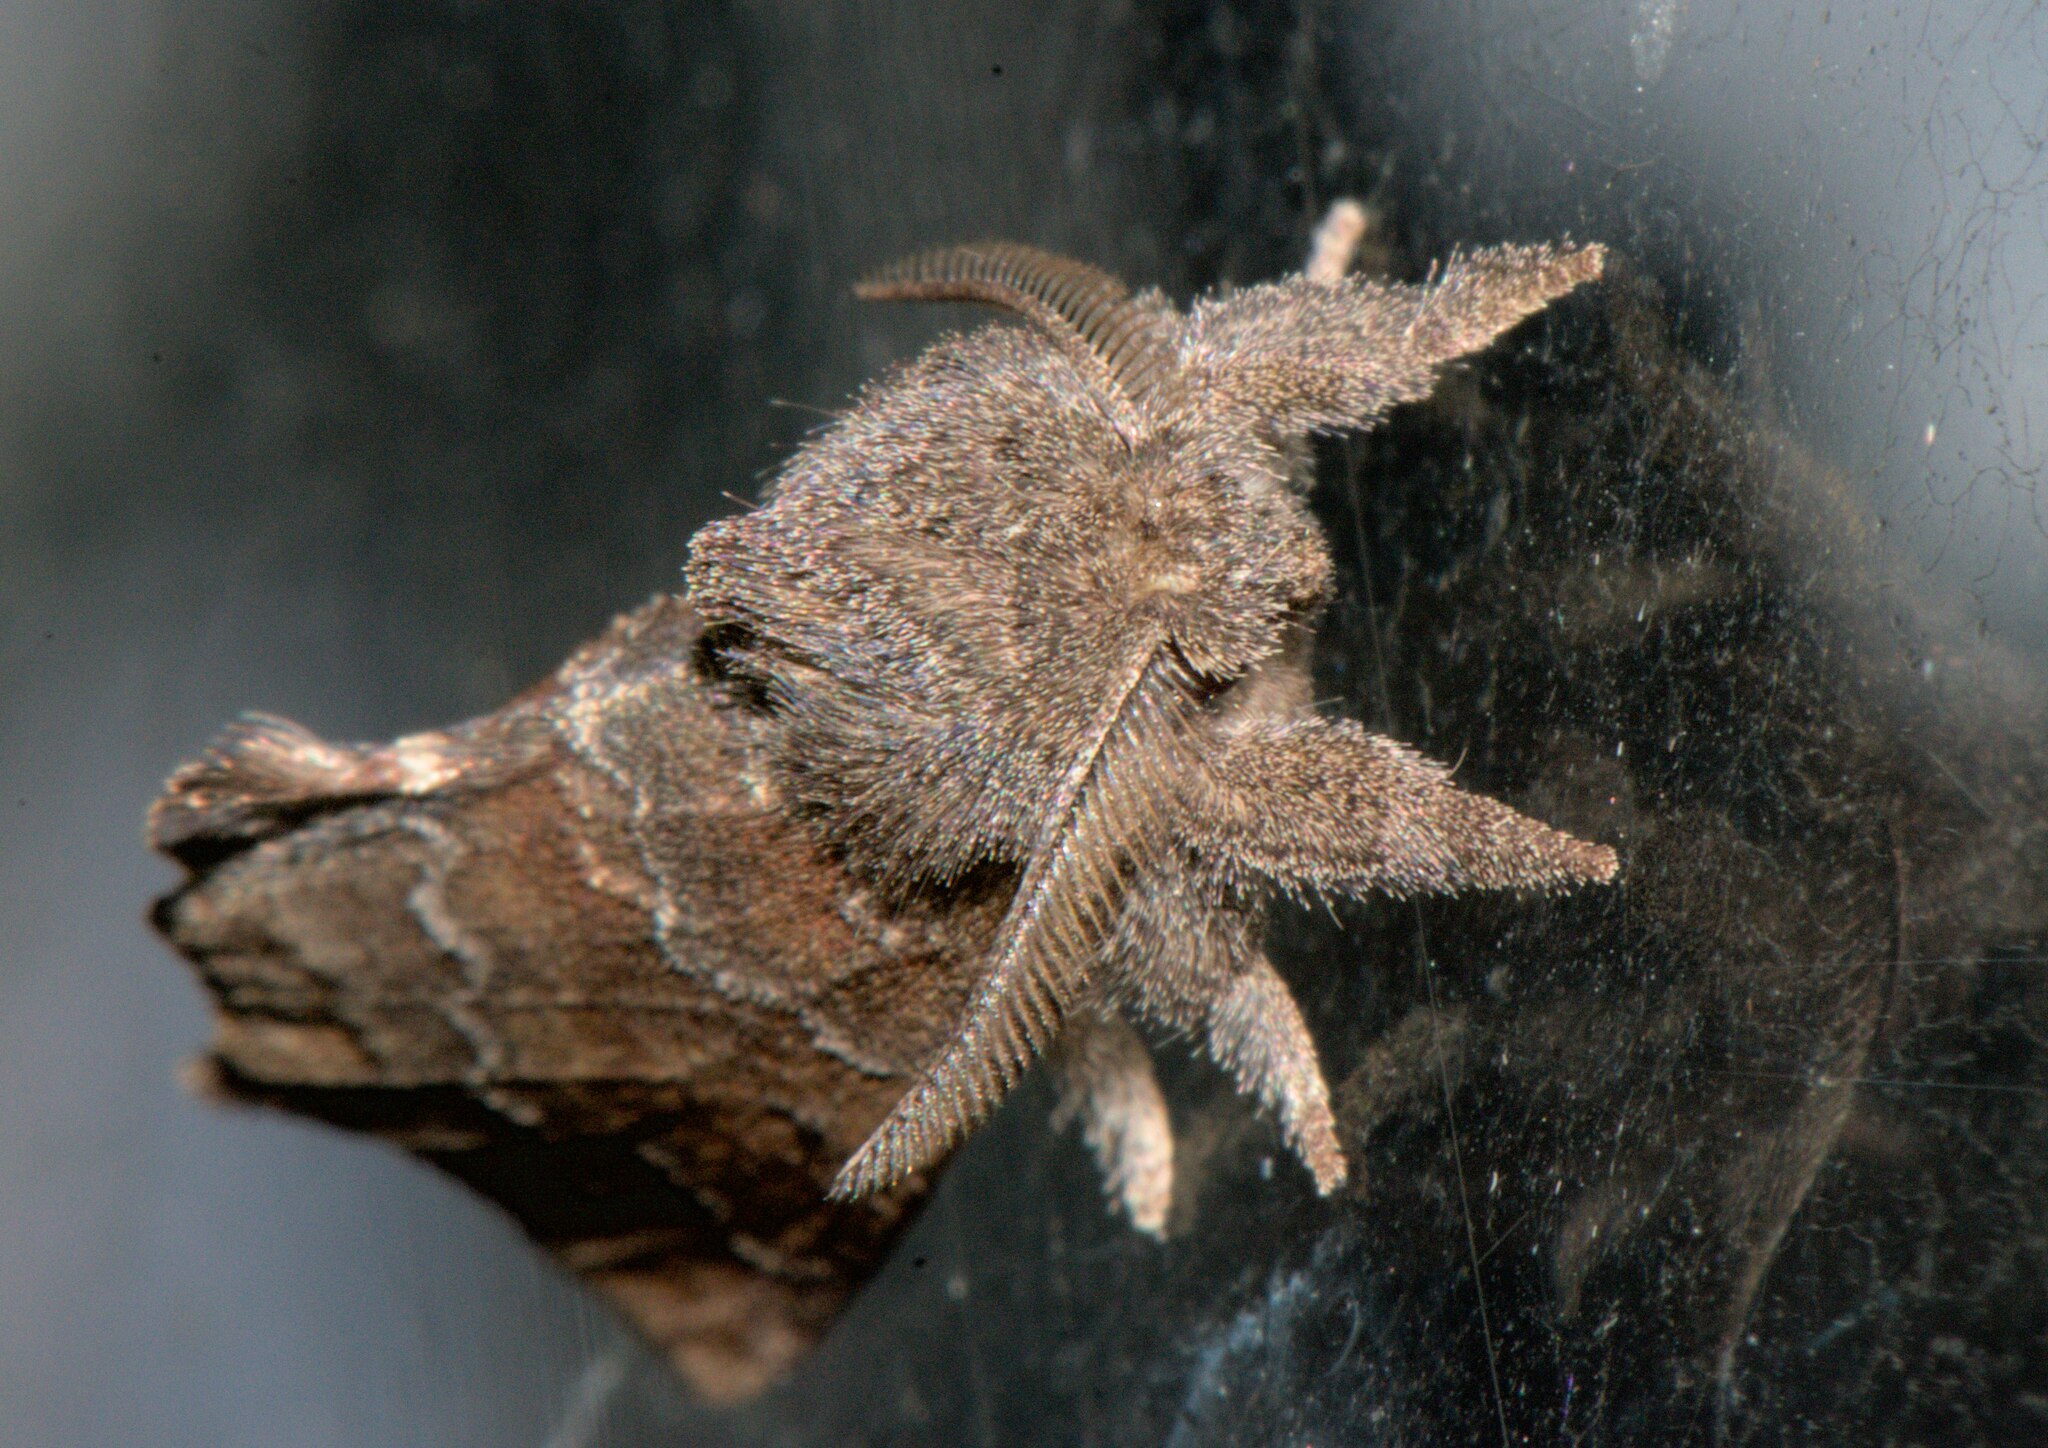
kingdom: Animalia
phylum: Arthropoda
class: Insecta
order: Lepidoptera
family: Notodontidae
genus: Micromelalopha
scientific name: Micromelalopha undulata
